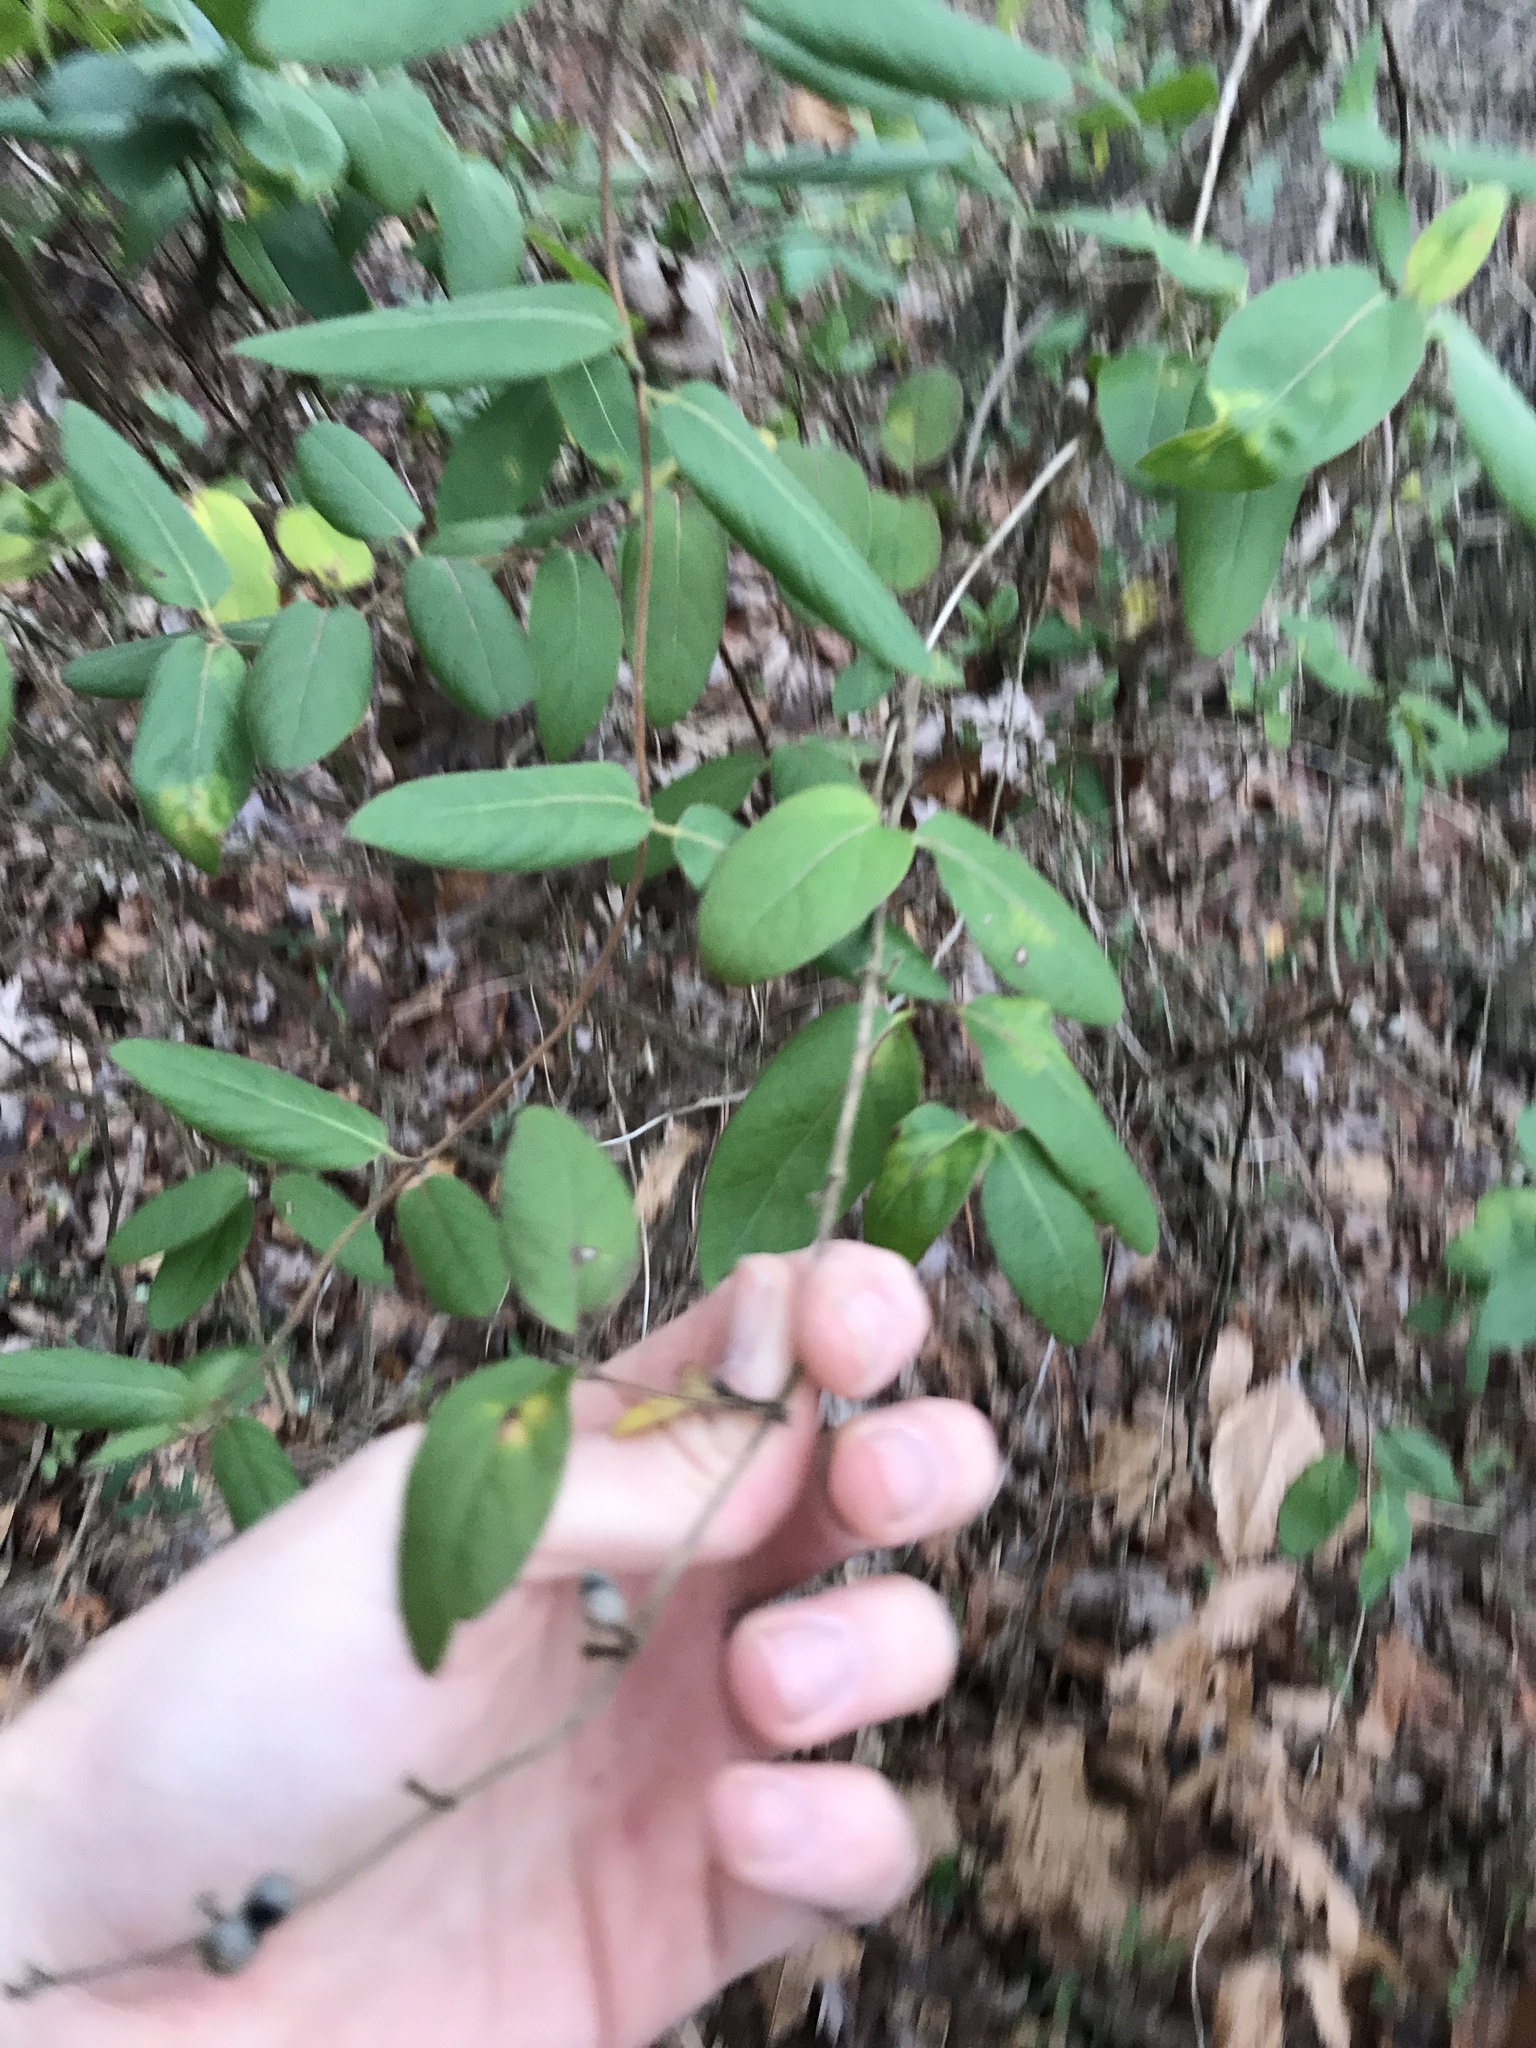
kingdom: Plantae
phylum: Tracheophyta
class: Magnoliopsida
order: Dipsacales
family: Caprifoliaceae
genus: Lonicera
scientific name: Lonicera japonica
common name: Japanese honeysuckle
